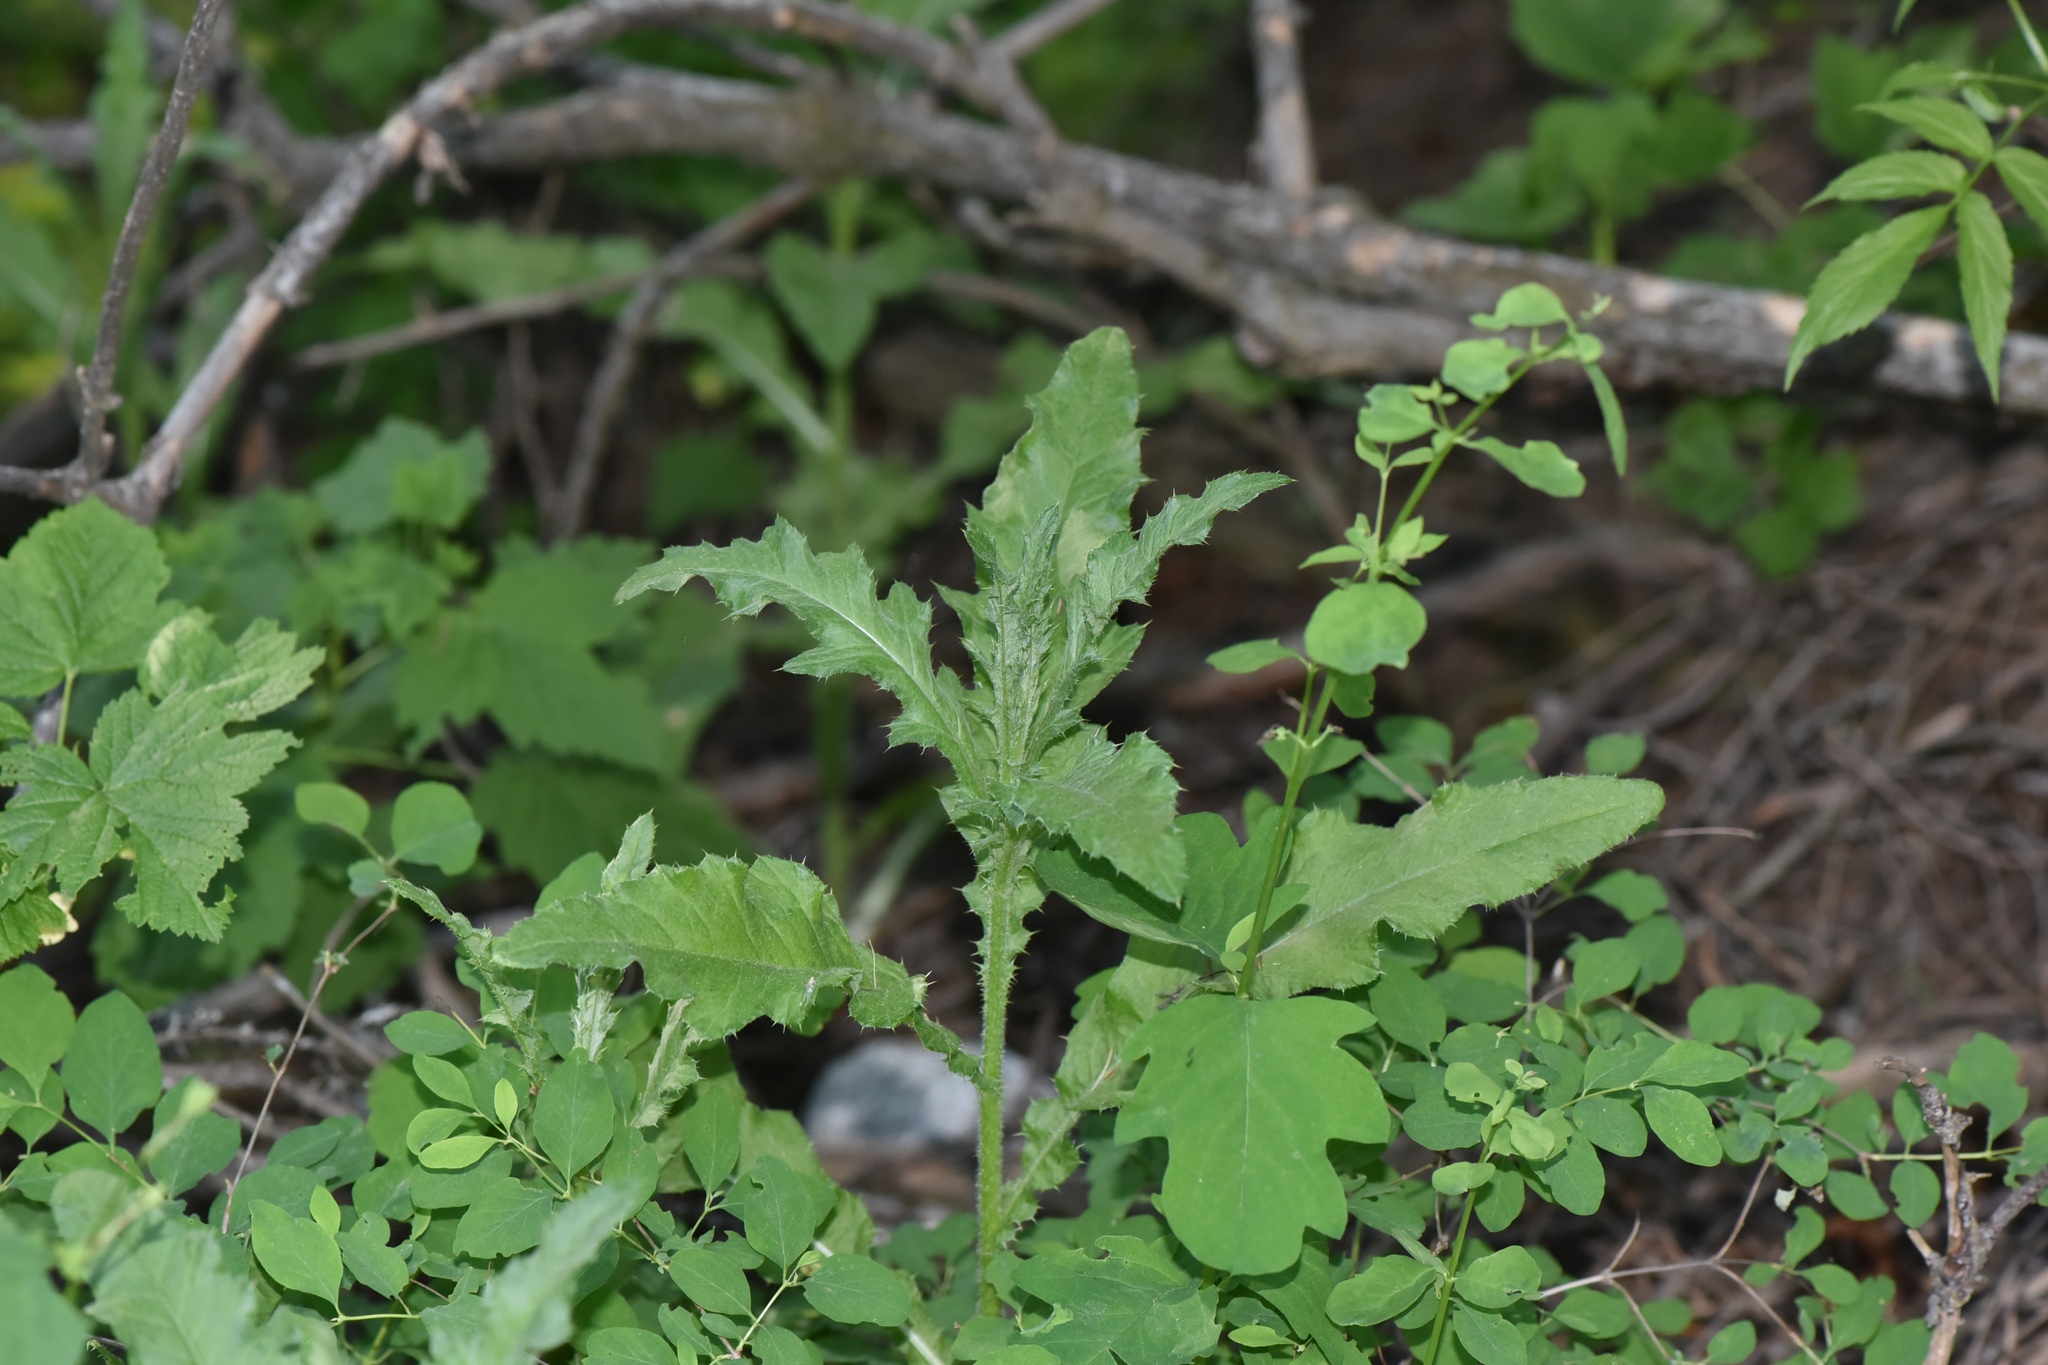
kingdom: Plantae
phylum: Tracheophyta
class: Magnoliopsida
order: Asterales
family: Asteraceae
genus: Cirsium
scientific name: Cirsium arvense
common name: Creeping thistle
